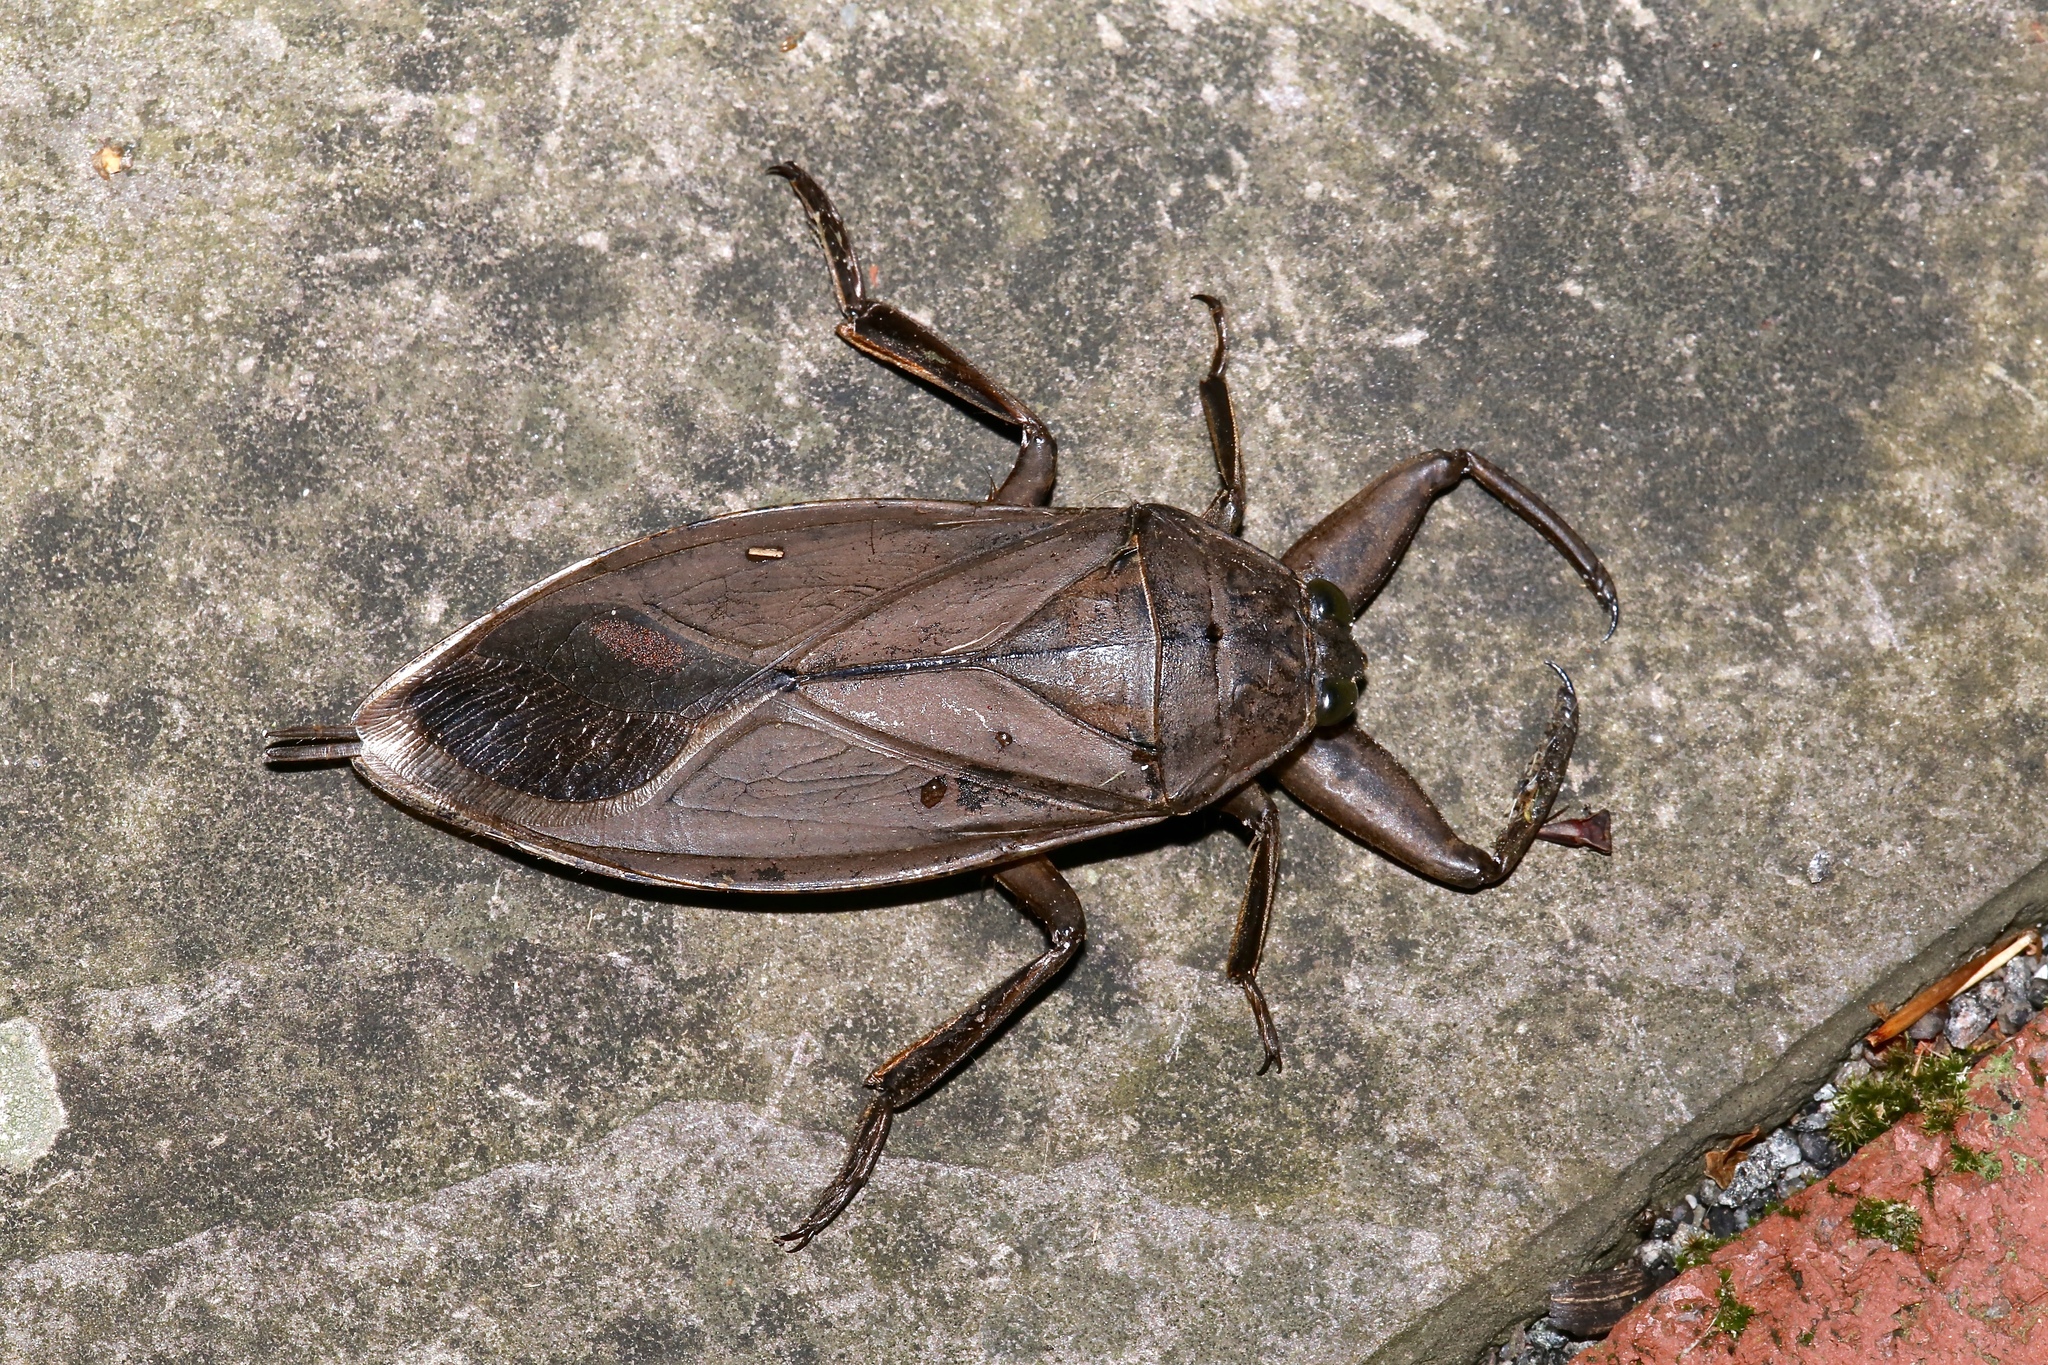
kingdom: Animalia
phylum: Arthropoda
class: Insecta
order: Hemiptera
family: Belostomatidae
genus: Lethocerus
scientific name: Lethocerus americanus
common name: Giant water bug
